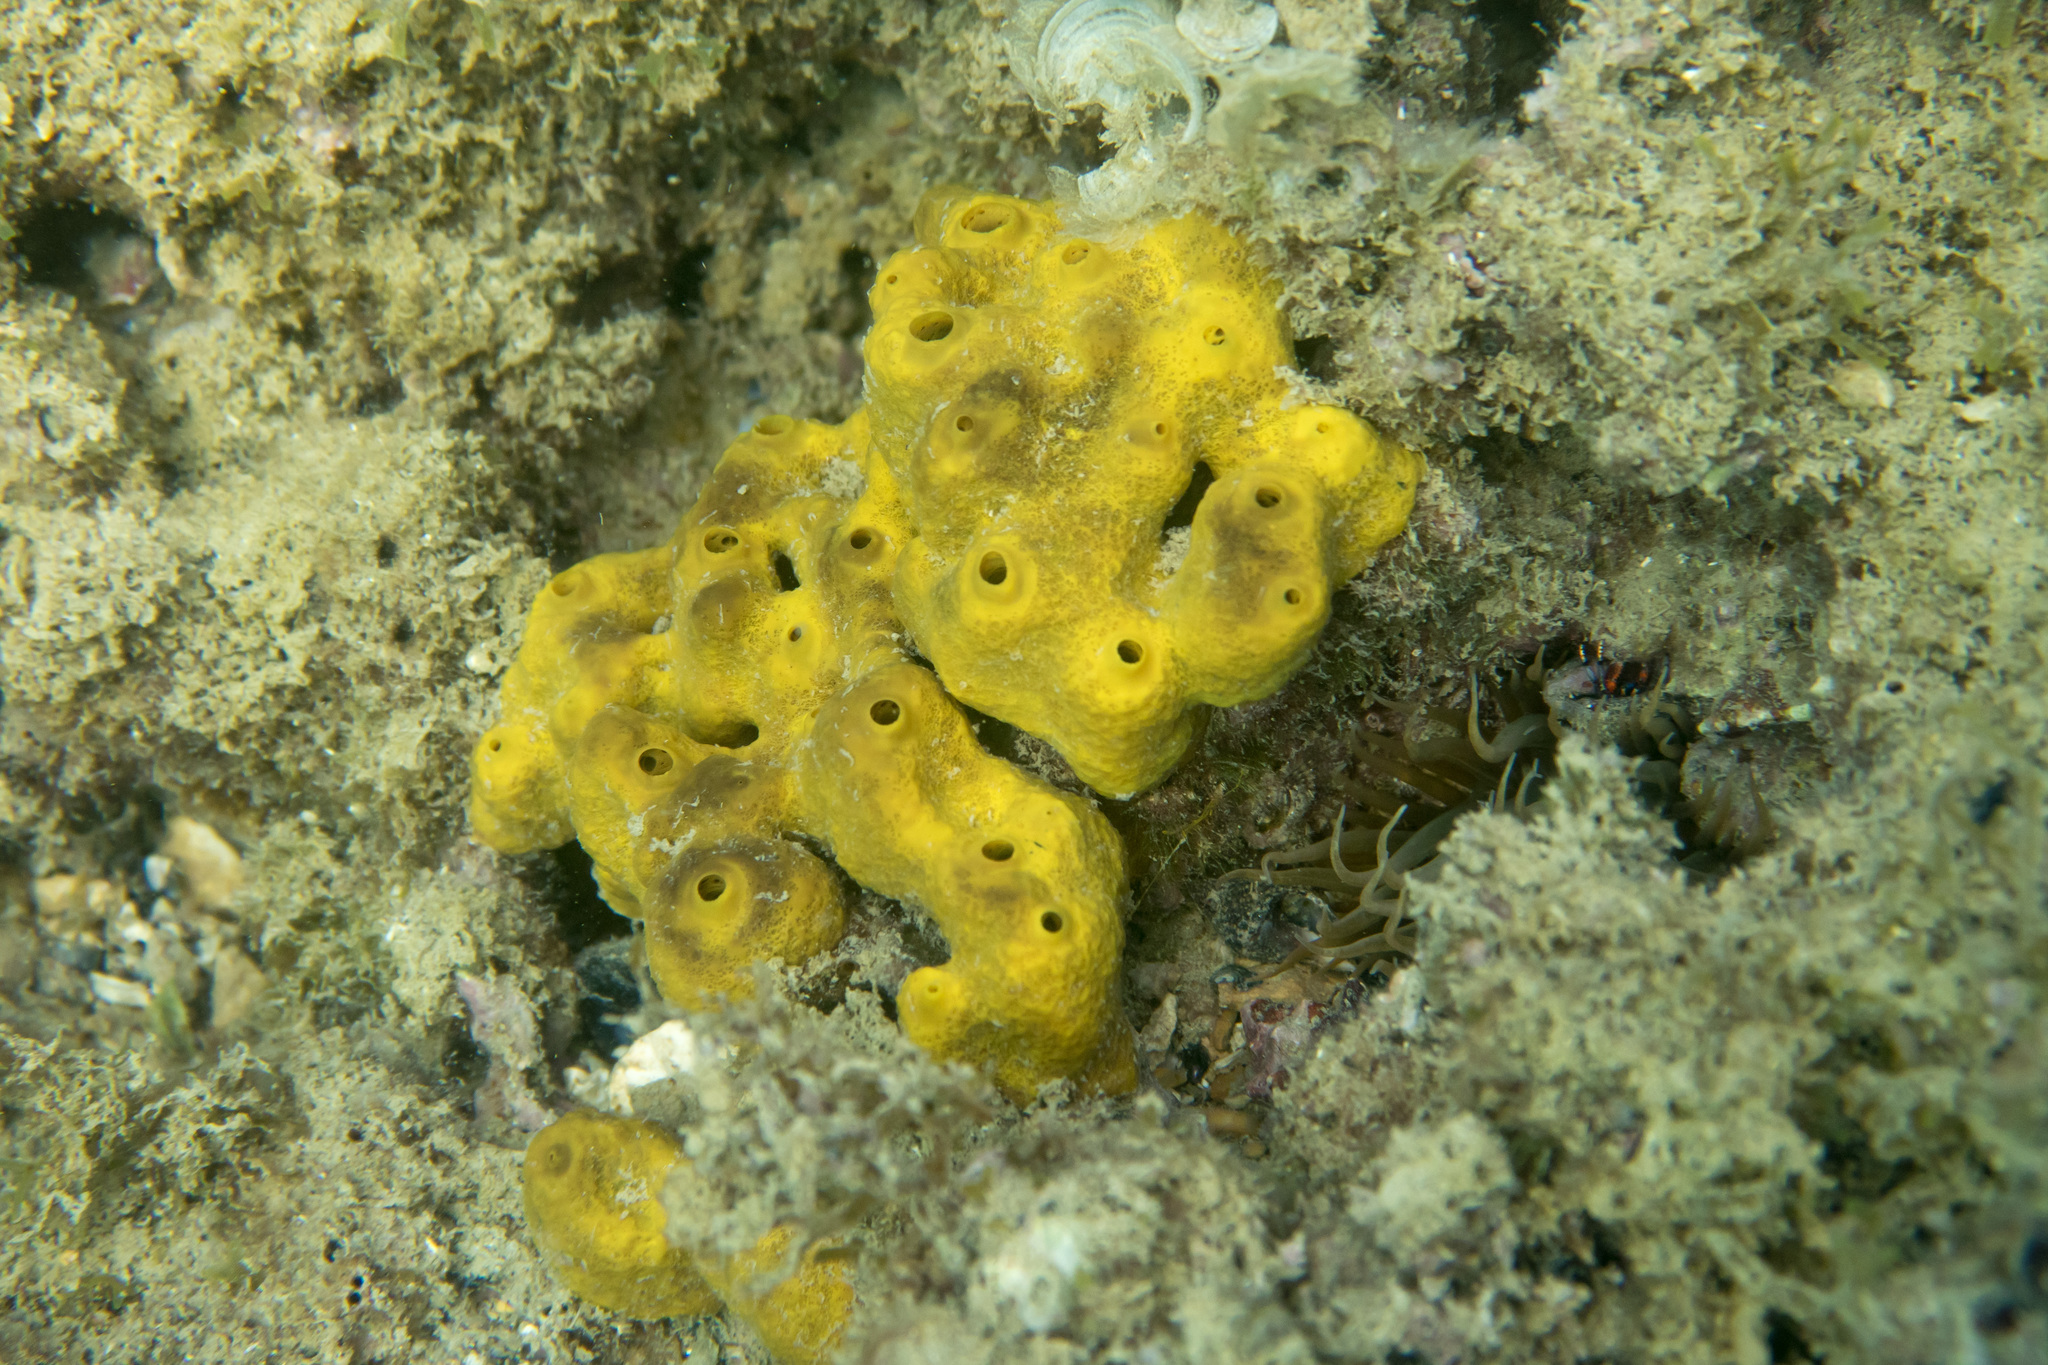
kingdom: Animalia
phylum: Porifera
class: Demospongiae
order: Verongiida
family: Aplysinidae
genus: Aplysina
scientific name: Aplysina aerophoba
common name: Aureate sponge
